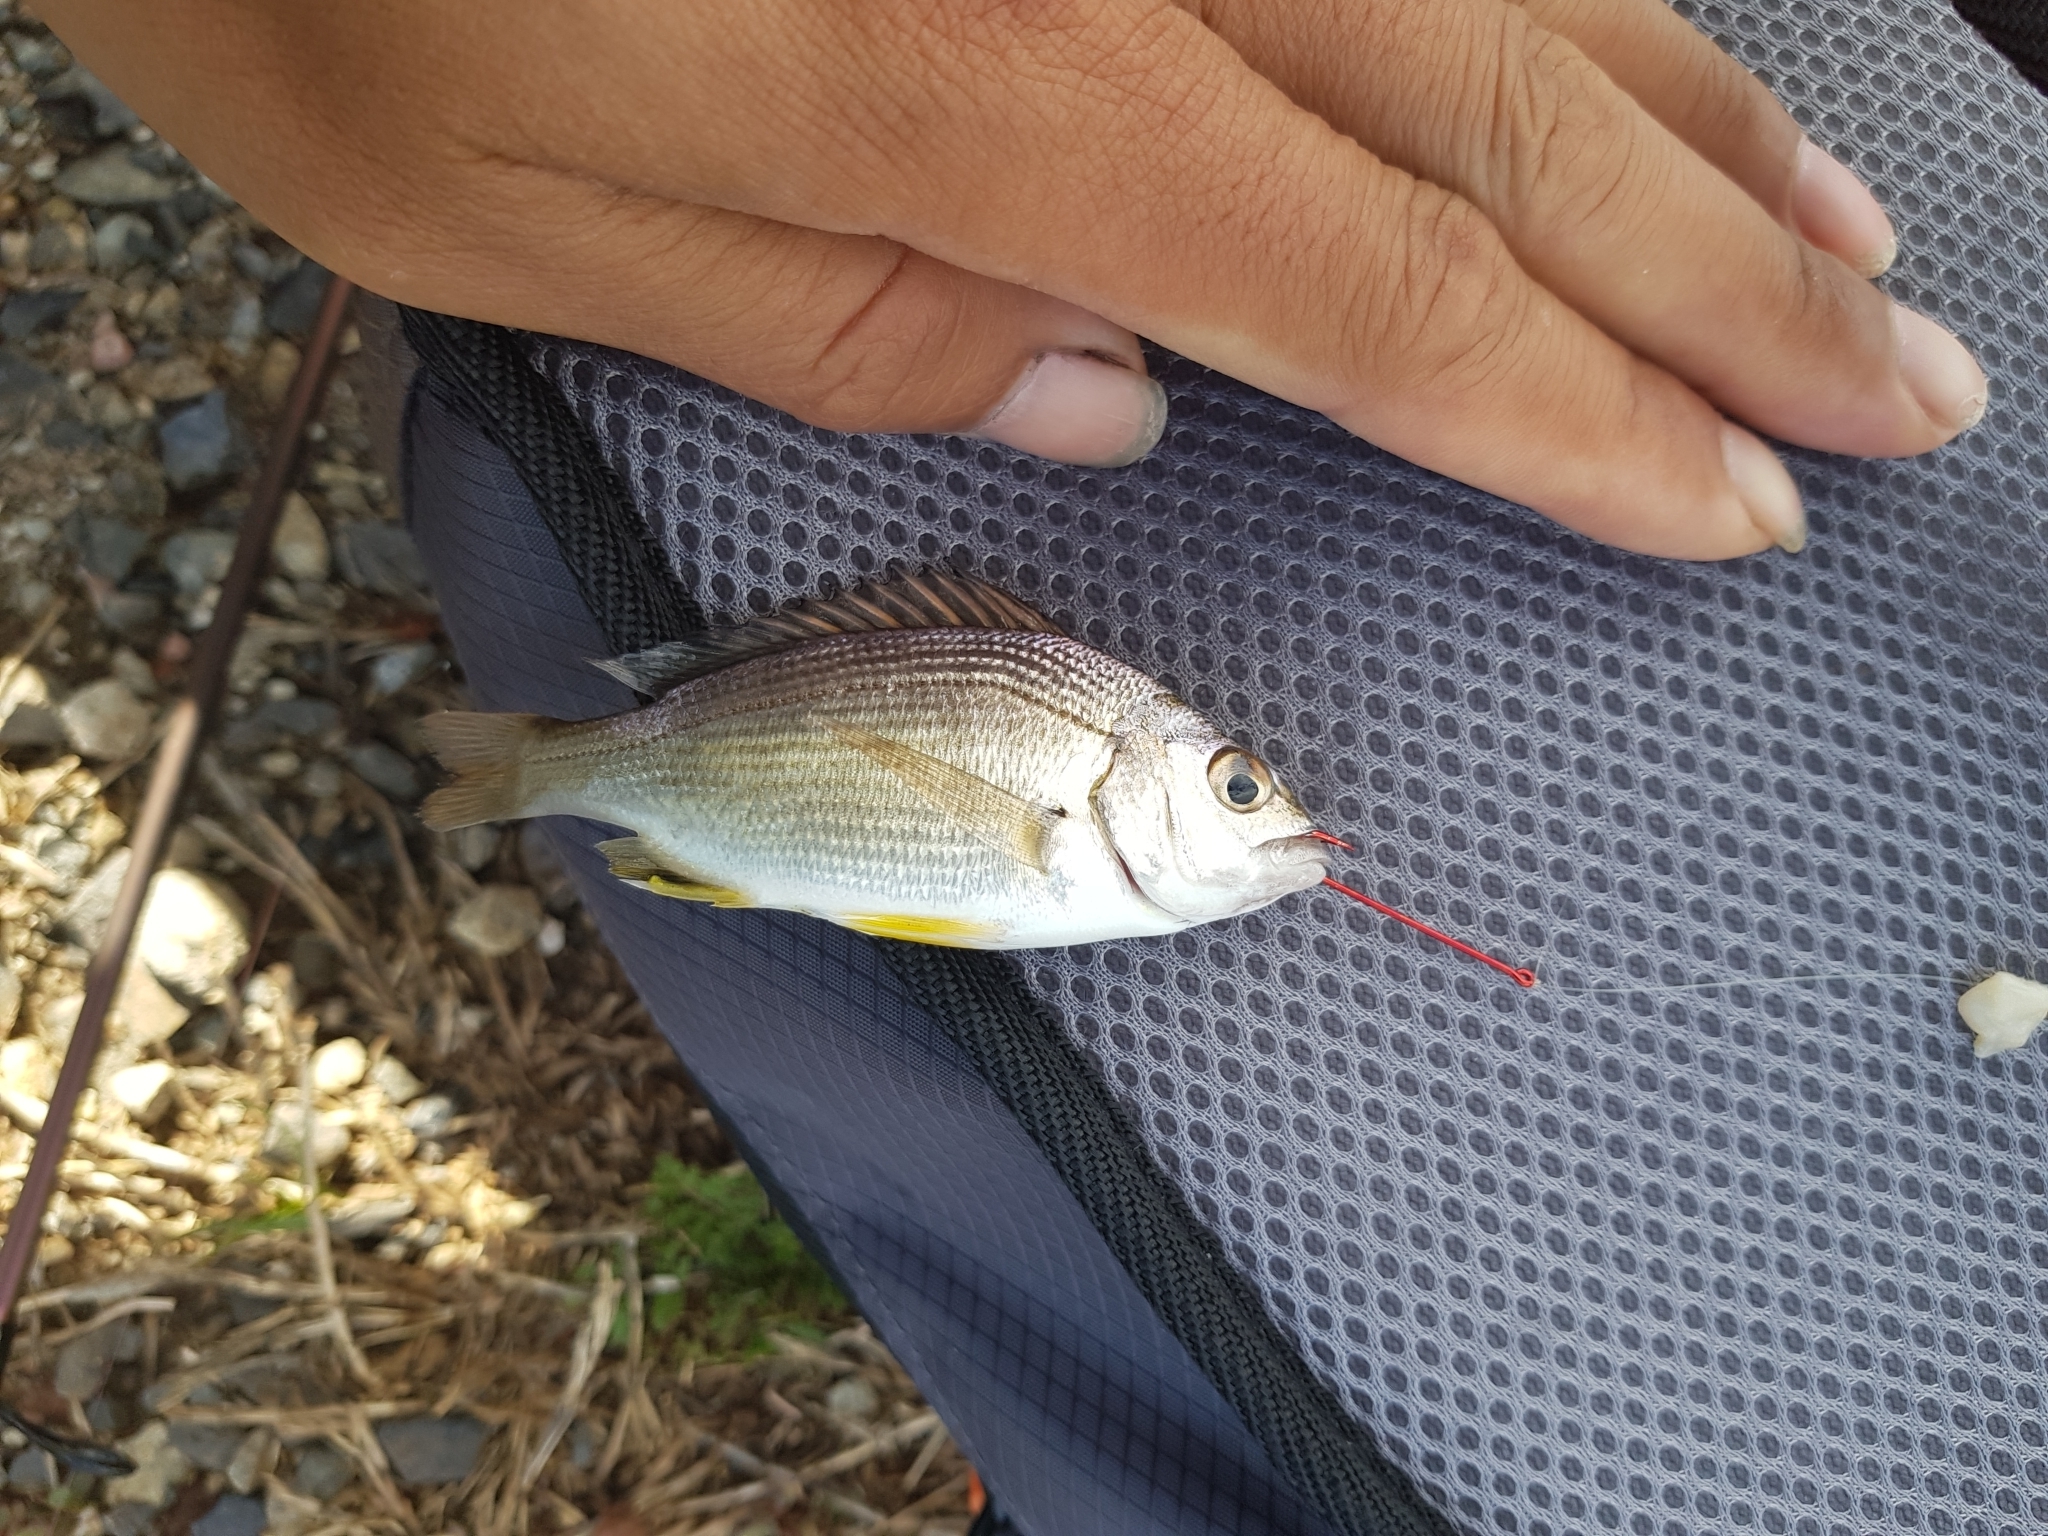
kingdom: Animalia
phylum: Chordata
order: Perciformes
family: Sparidae
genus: Acanthopagrus
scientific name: Acanthopagrus butcheri
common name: Black bream
